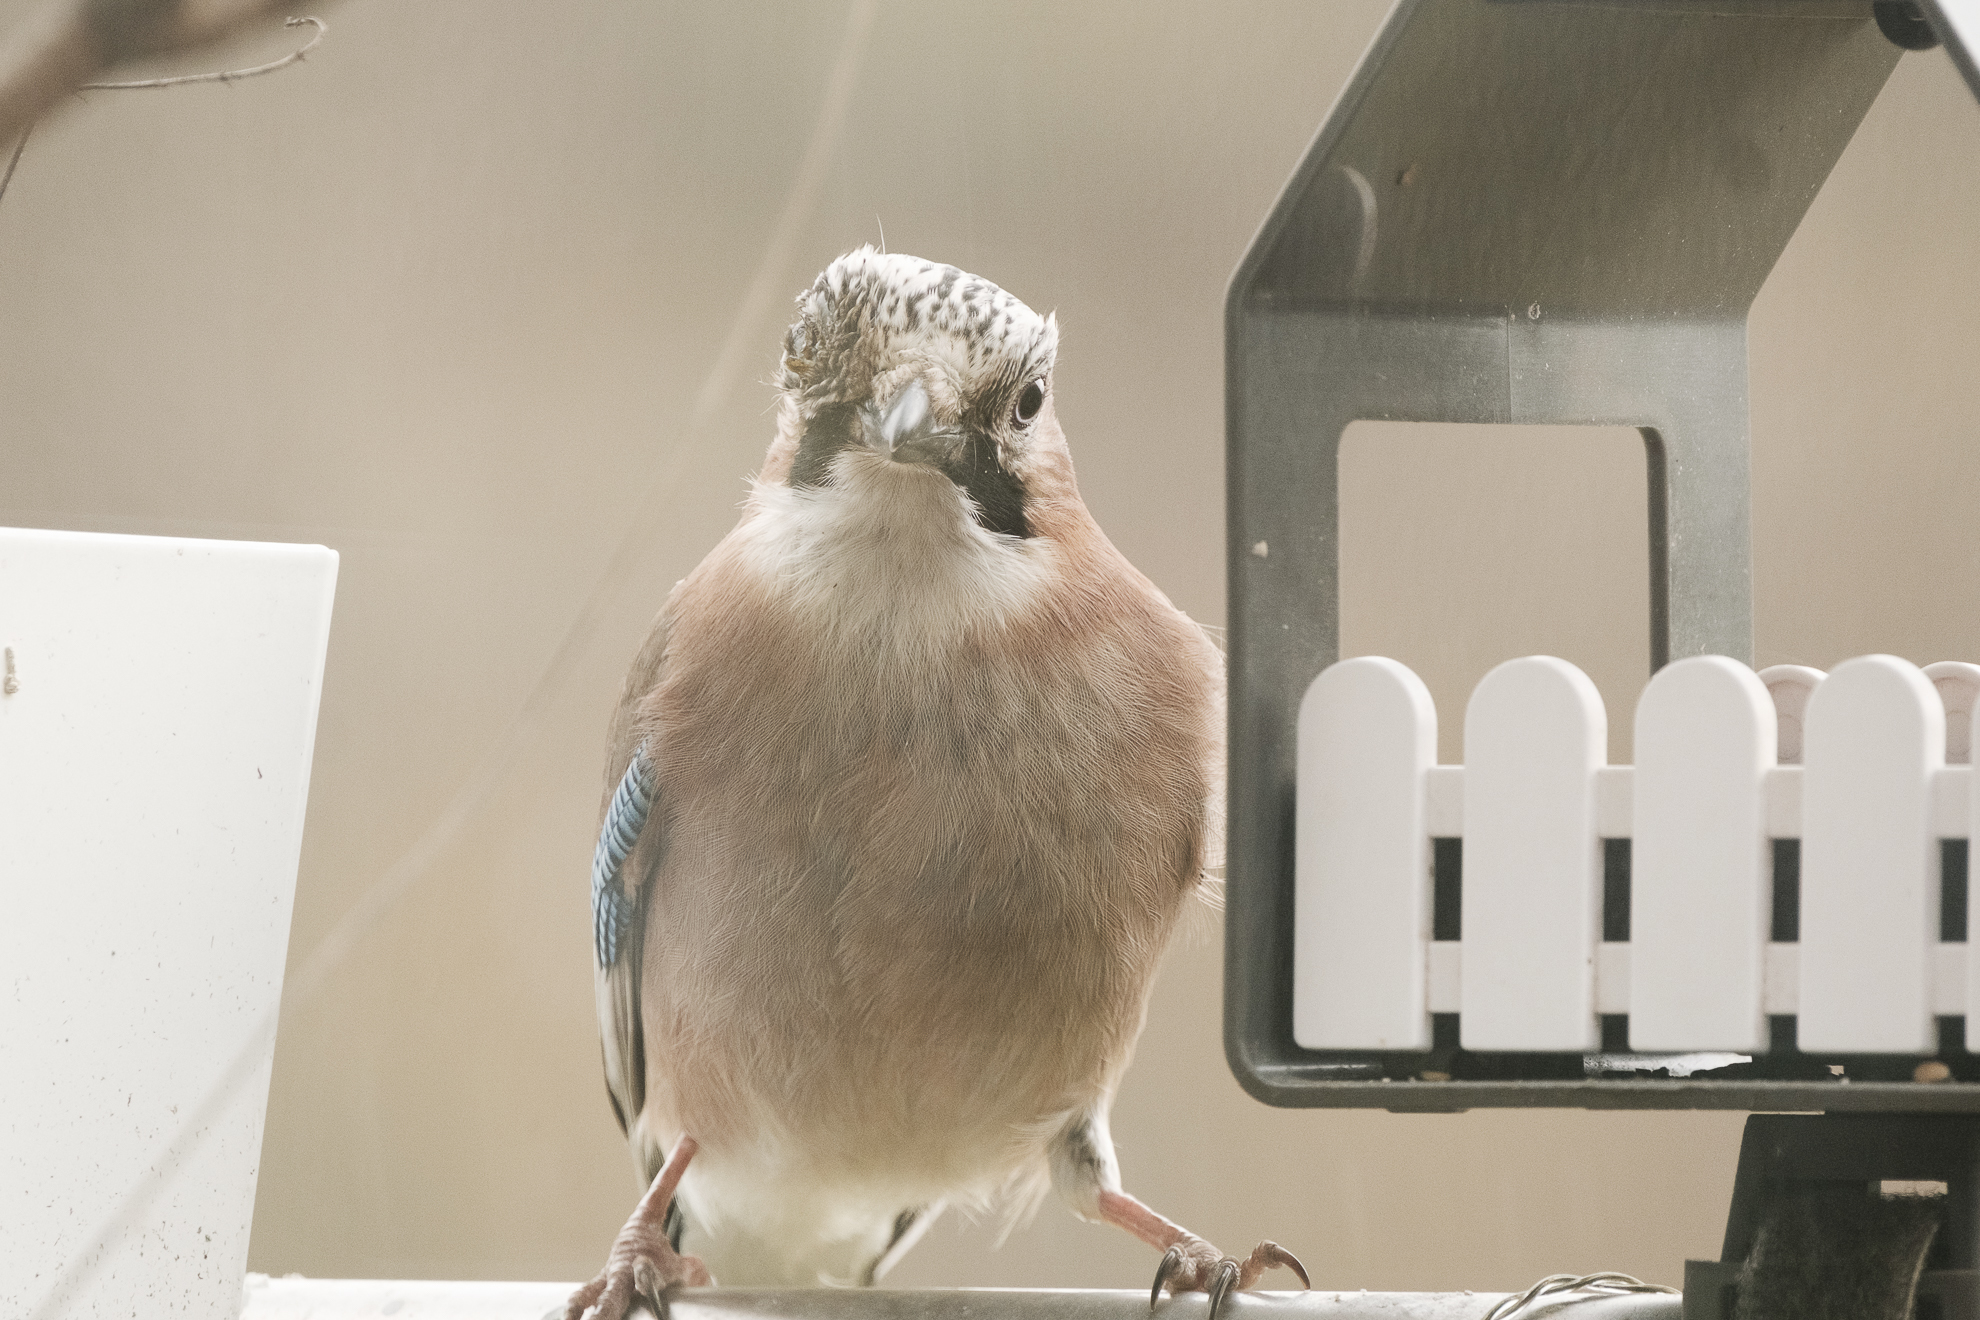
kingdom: Animalia
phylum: Chordata
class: Aves
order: Passeriformes
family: Corvidae
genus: Garrulus
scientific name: Garrulus glandarius
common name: Eurasian jay
